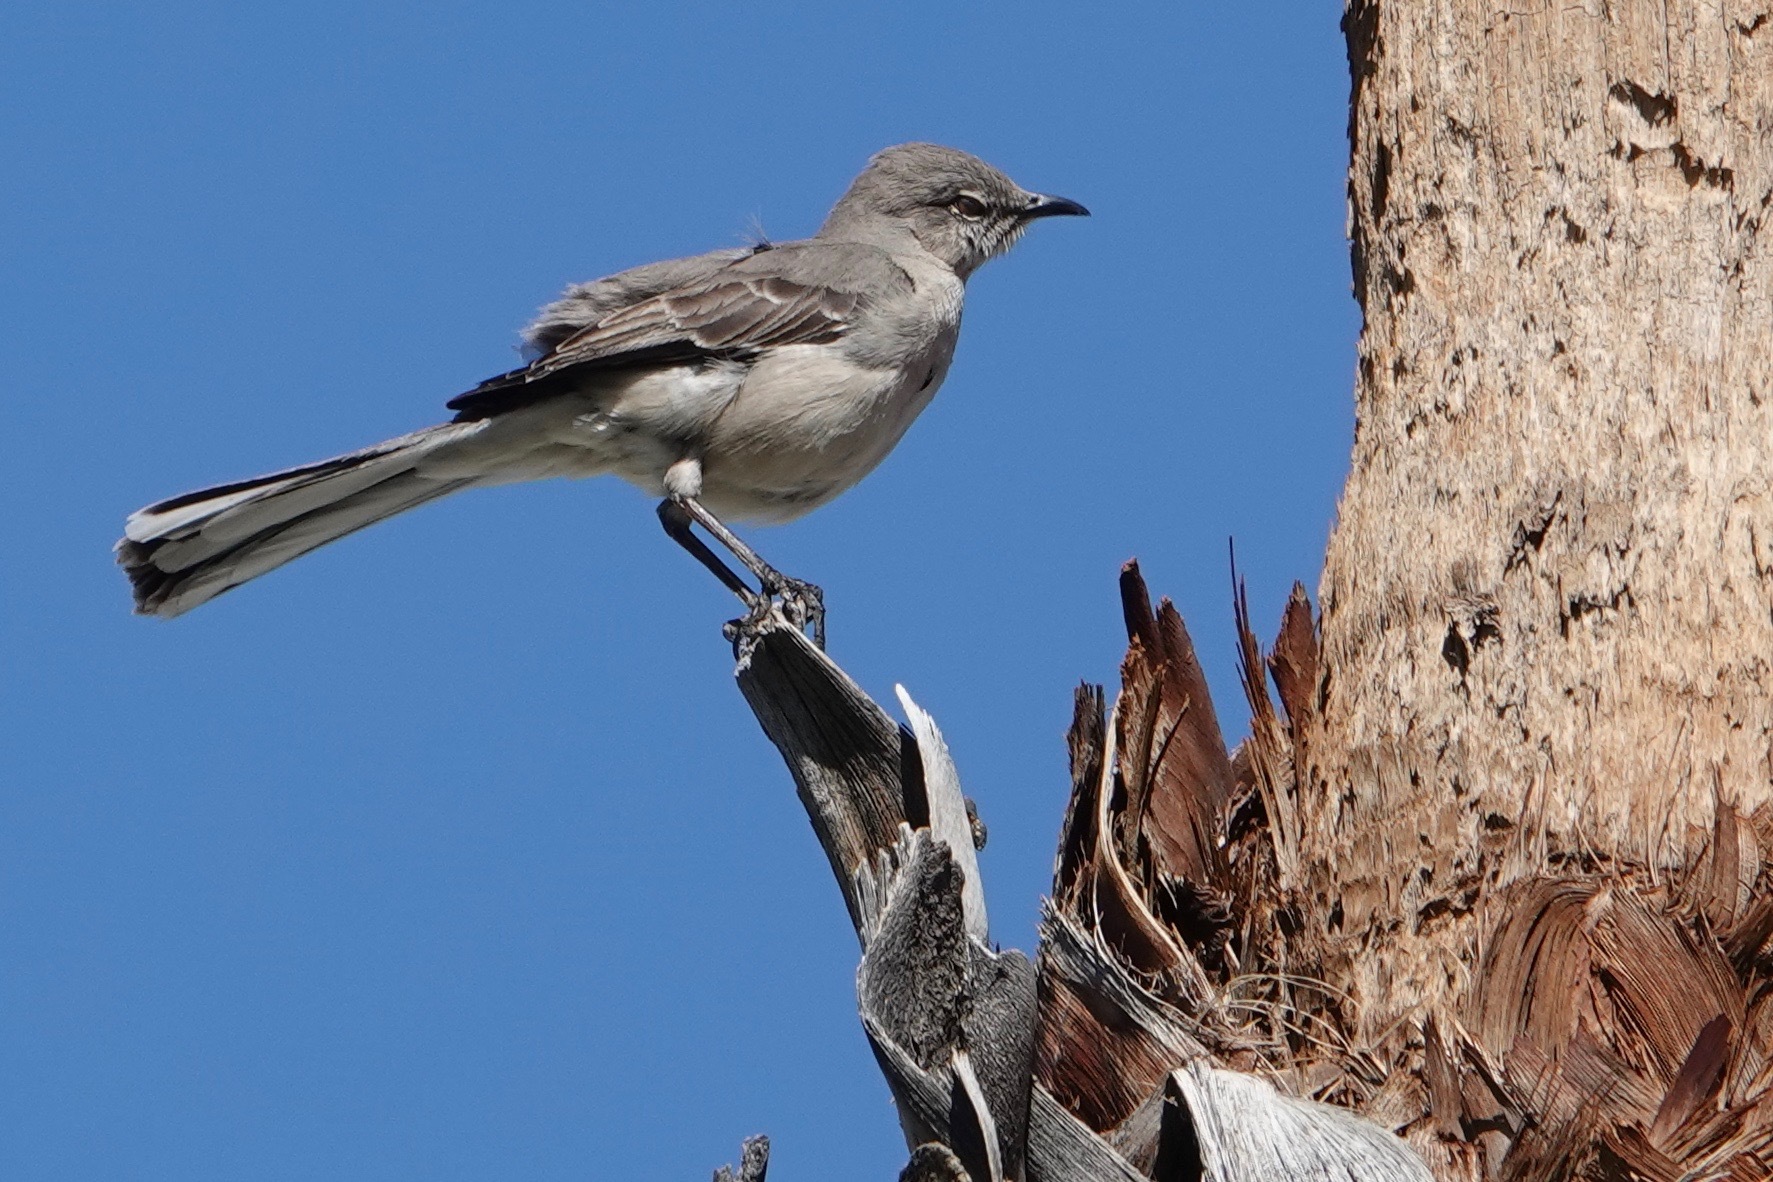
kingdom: Animalia
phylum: Chordata
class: Aves
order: Passeriformes
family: Mimidae
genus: Mimus
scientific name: Mimus polyglottos
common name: Northern mockingbird
